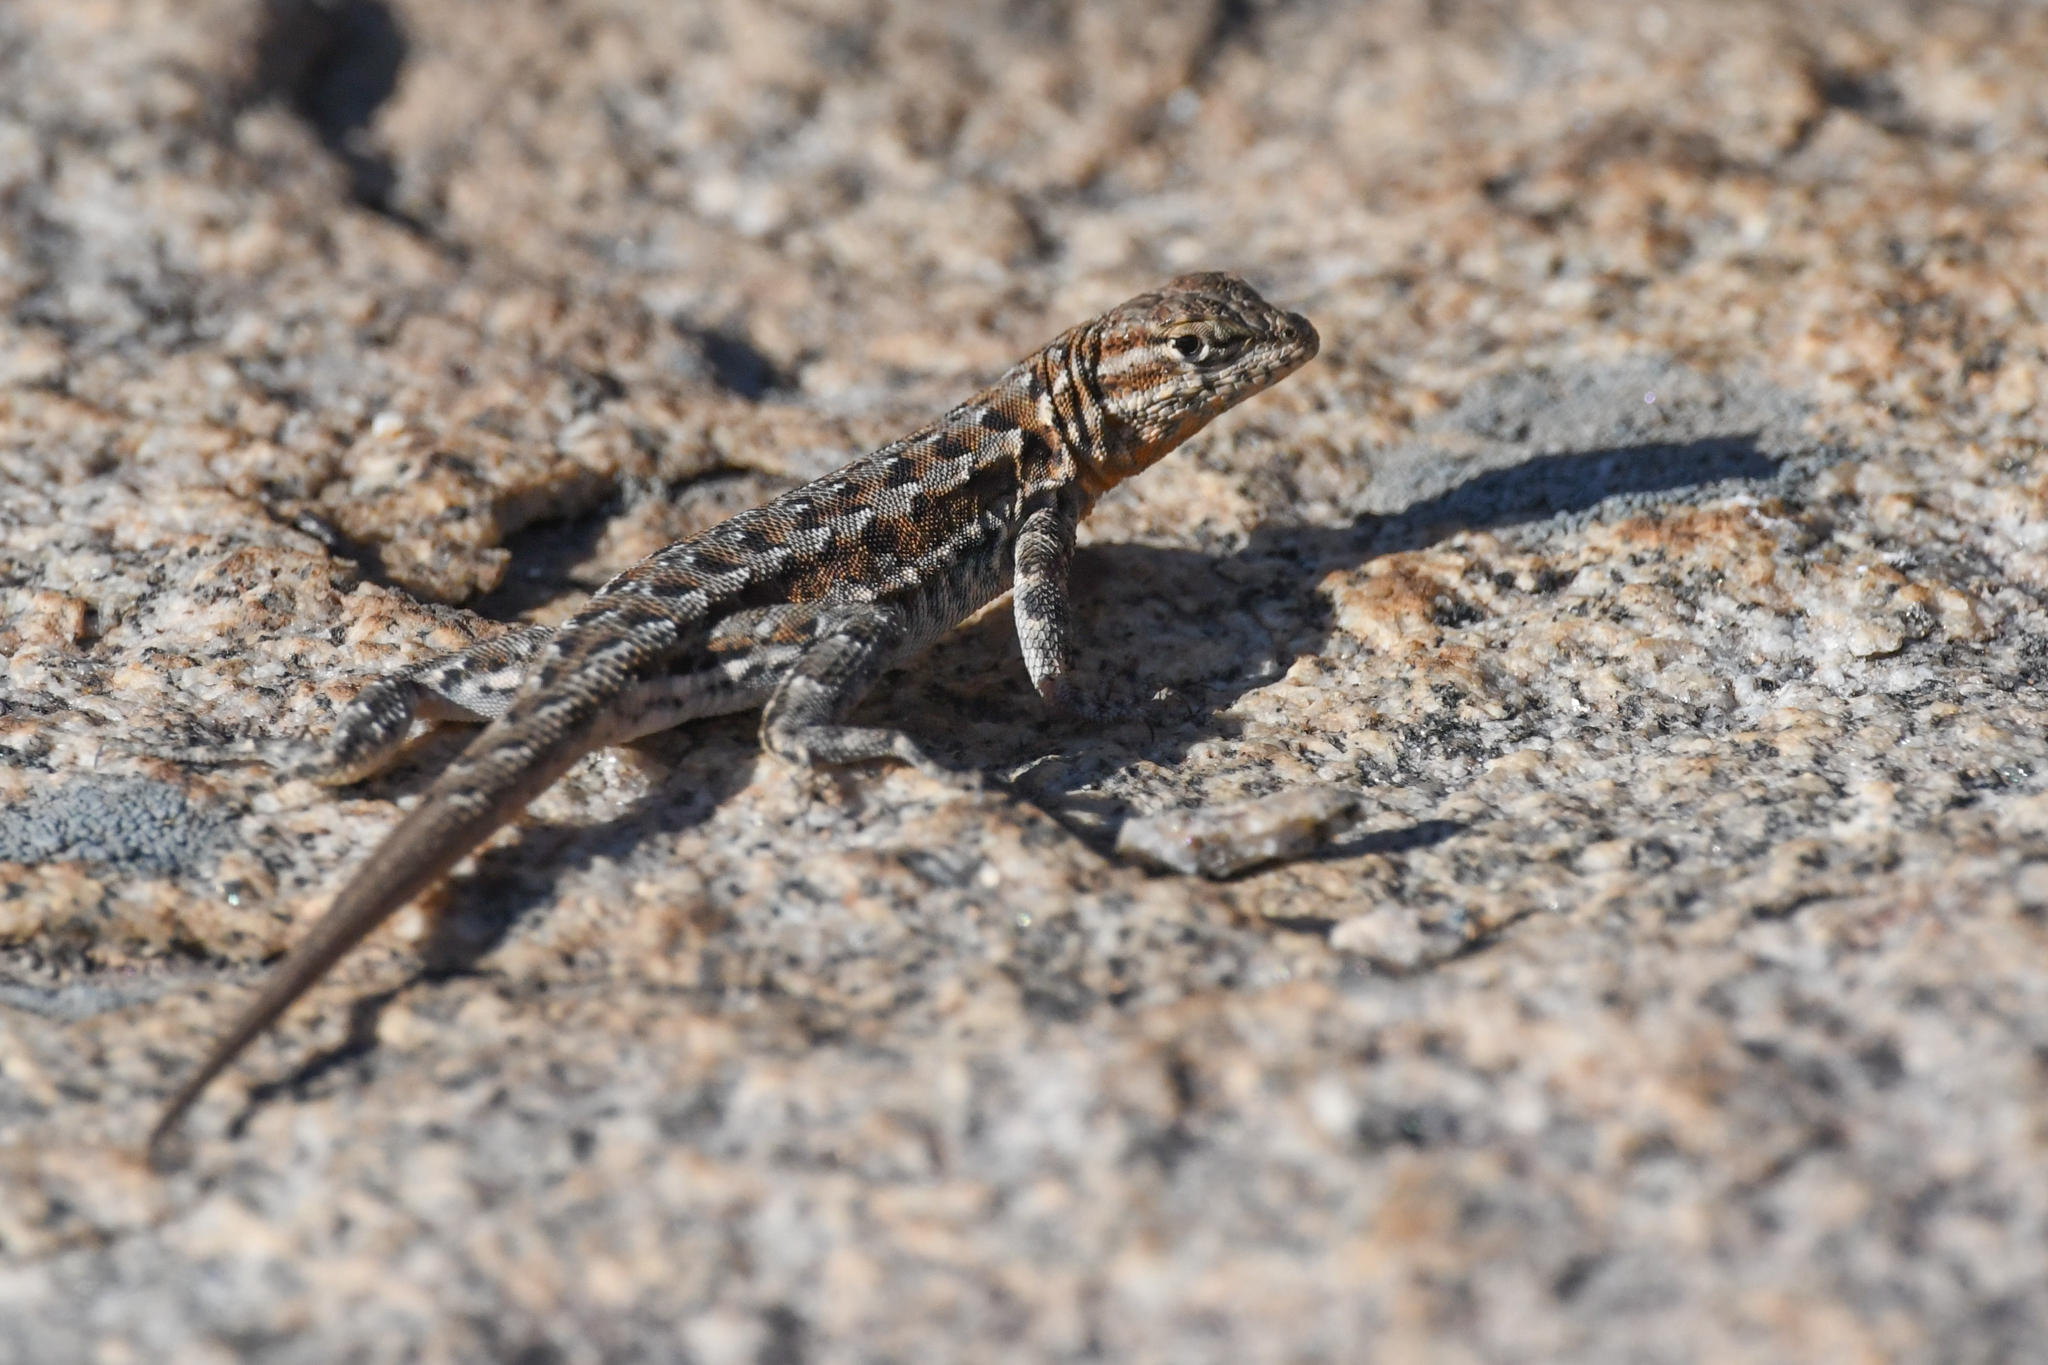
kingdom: Animalia
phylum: Chordata
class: Squamata
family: Phrynosomatidae
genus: Uta
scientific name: Uta stansburiana
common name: Side-blotched lizard
